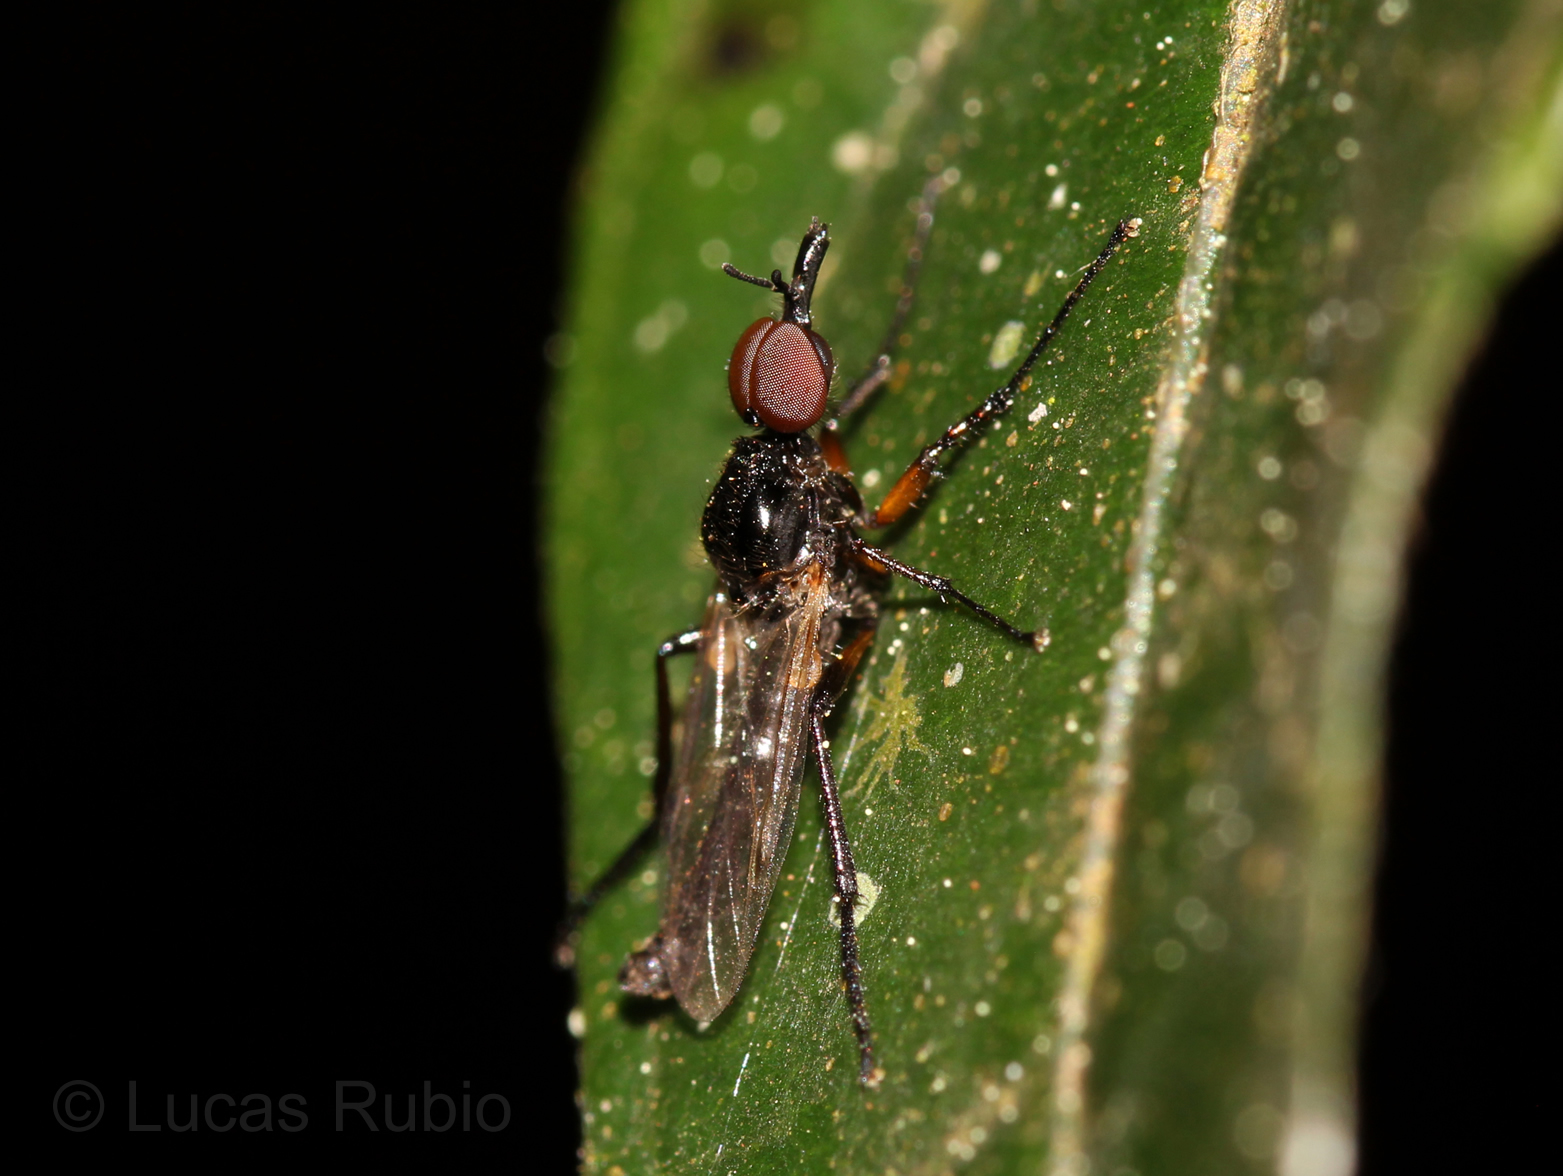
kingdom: Animalia
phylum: Arthropoda
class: Insecta
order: Diptera
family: Bibionidae
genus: Dilophus
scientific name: Dilophus bicoloripes
